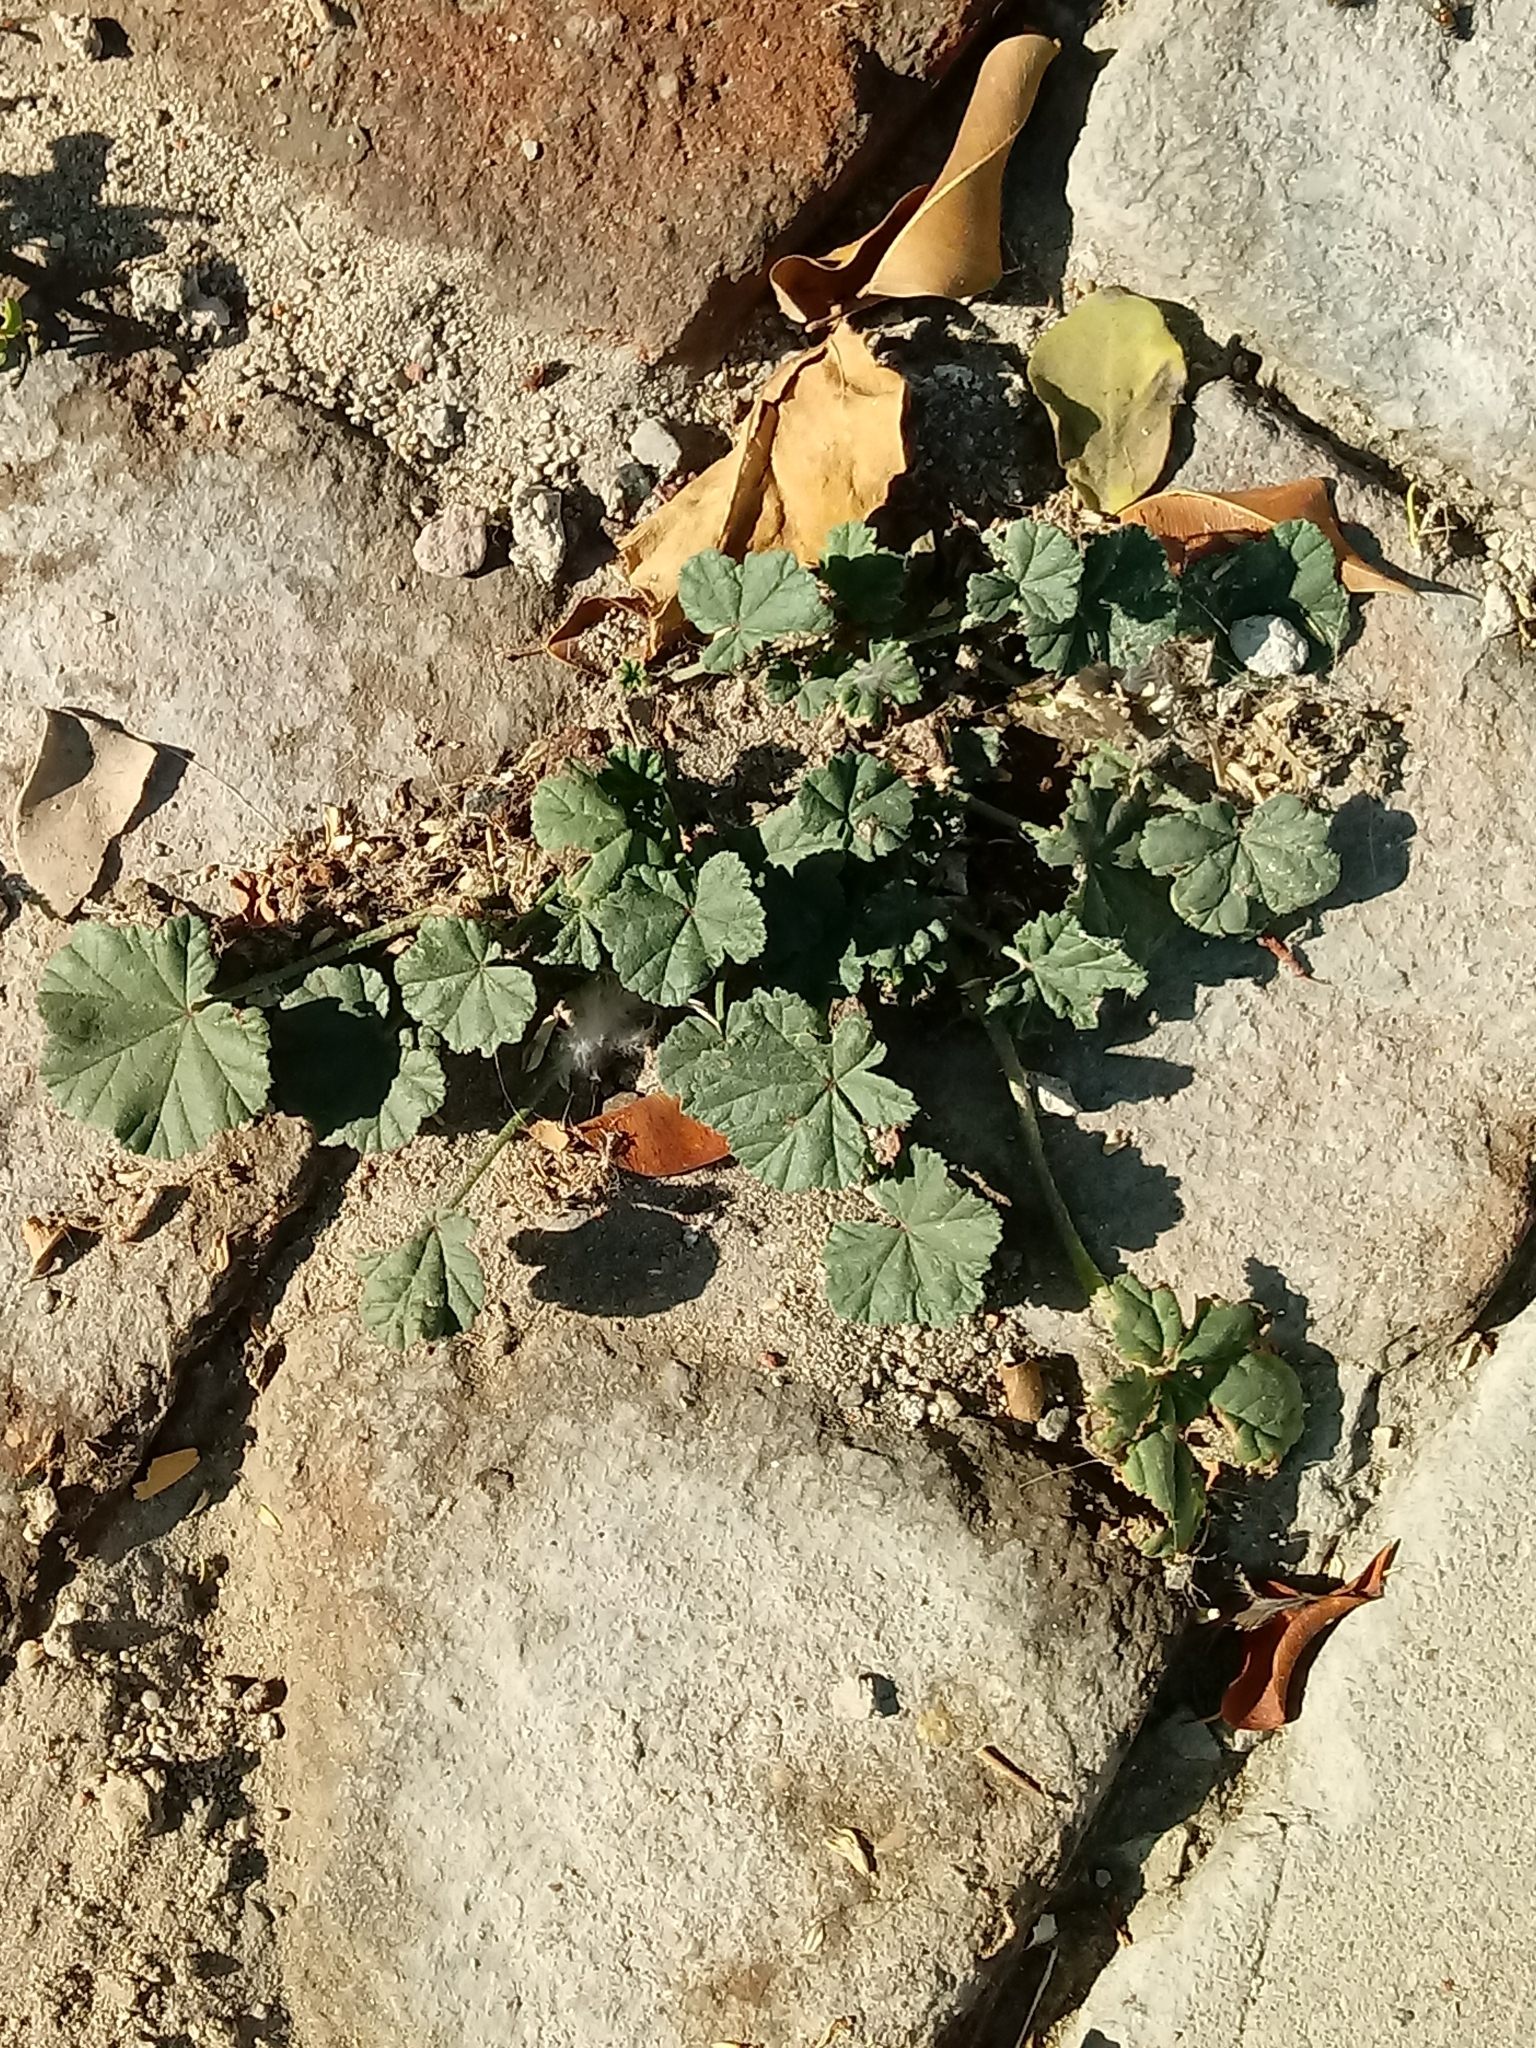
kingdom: Plantae
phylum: Tracheophyta
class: Magnoliopsida
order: Malvales
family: Malvaceae
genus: Malva
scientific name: Malva parviflora
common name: Least mallow
